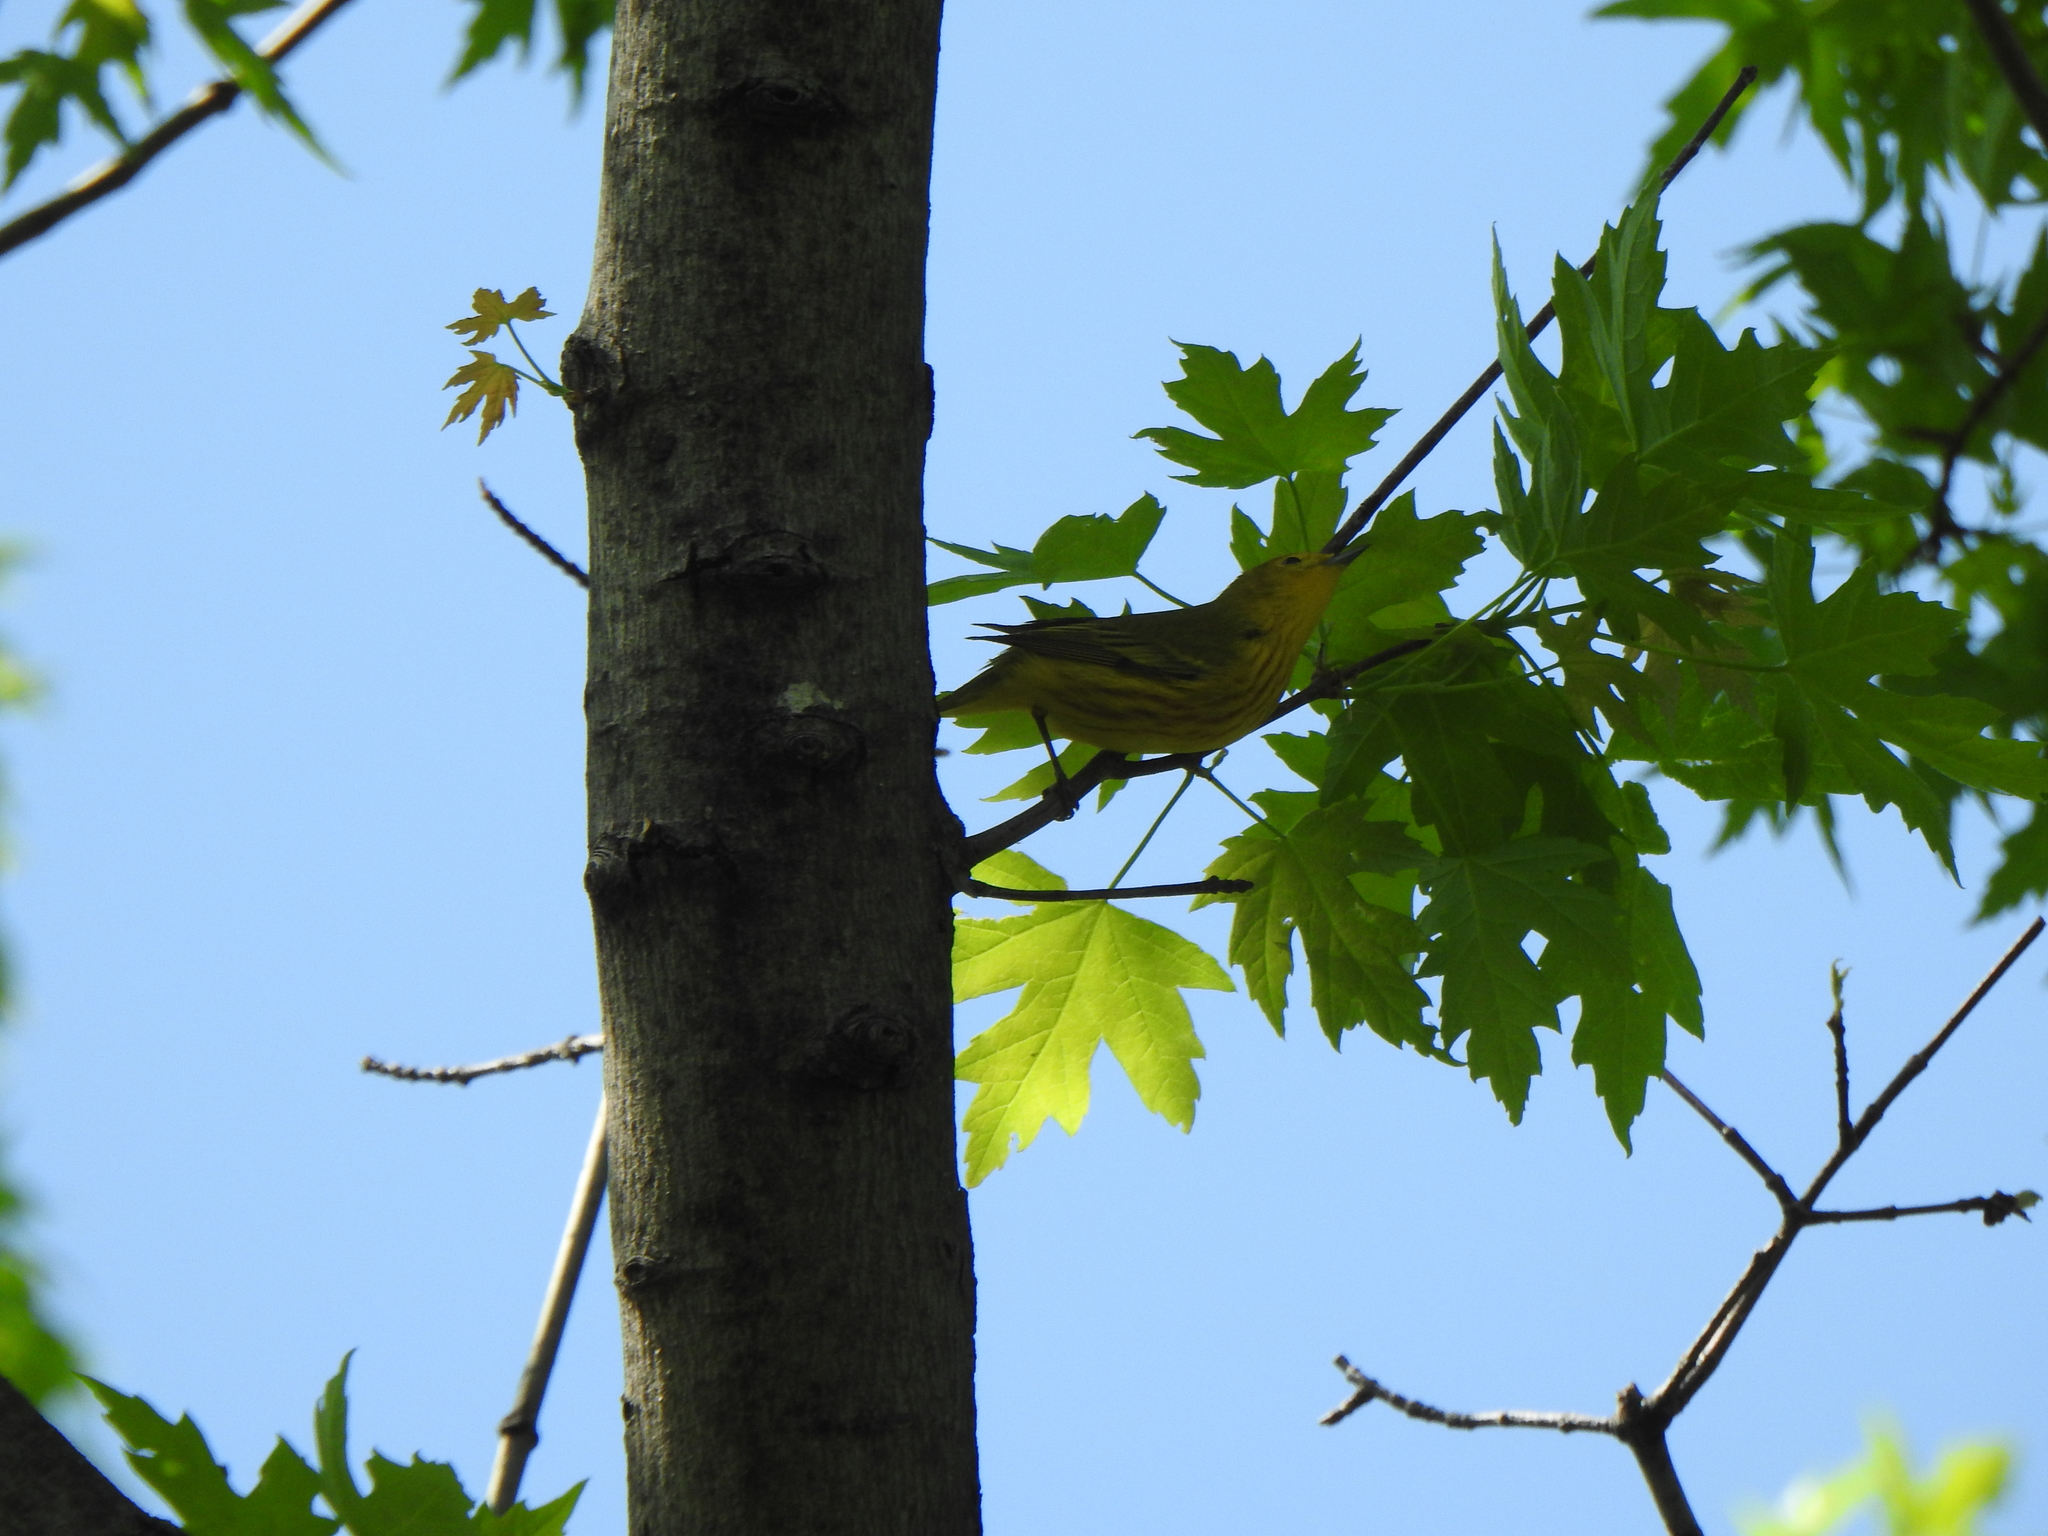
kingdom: Animalia
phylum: Chordata
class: Aves
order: Passeriformes
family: Parulidae
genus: Setophaga
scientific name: Setophaga petechia
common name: Yellow warbler
